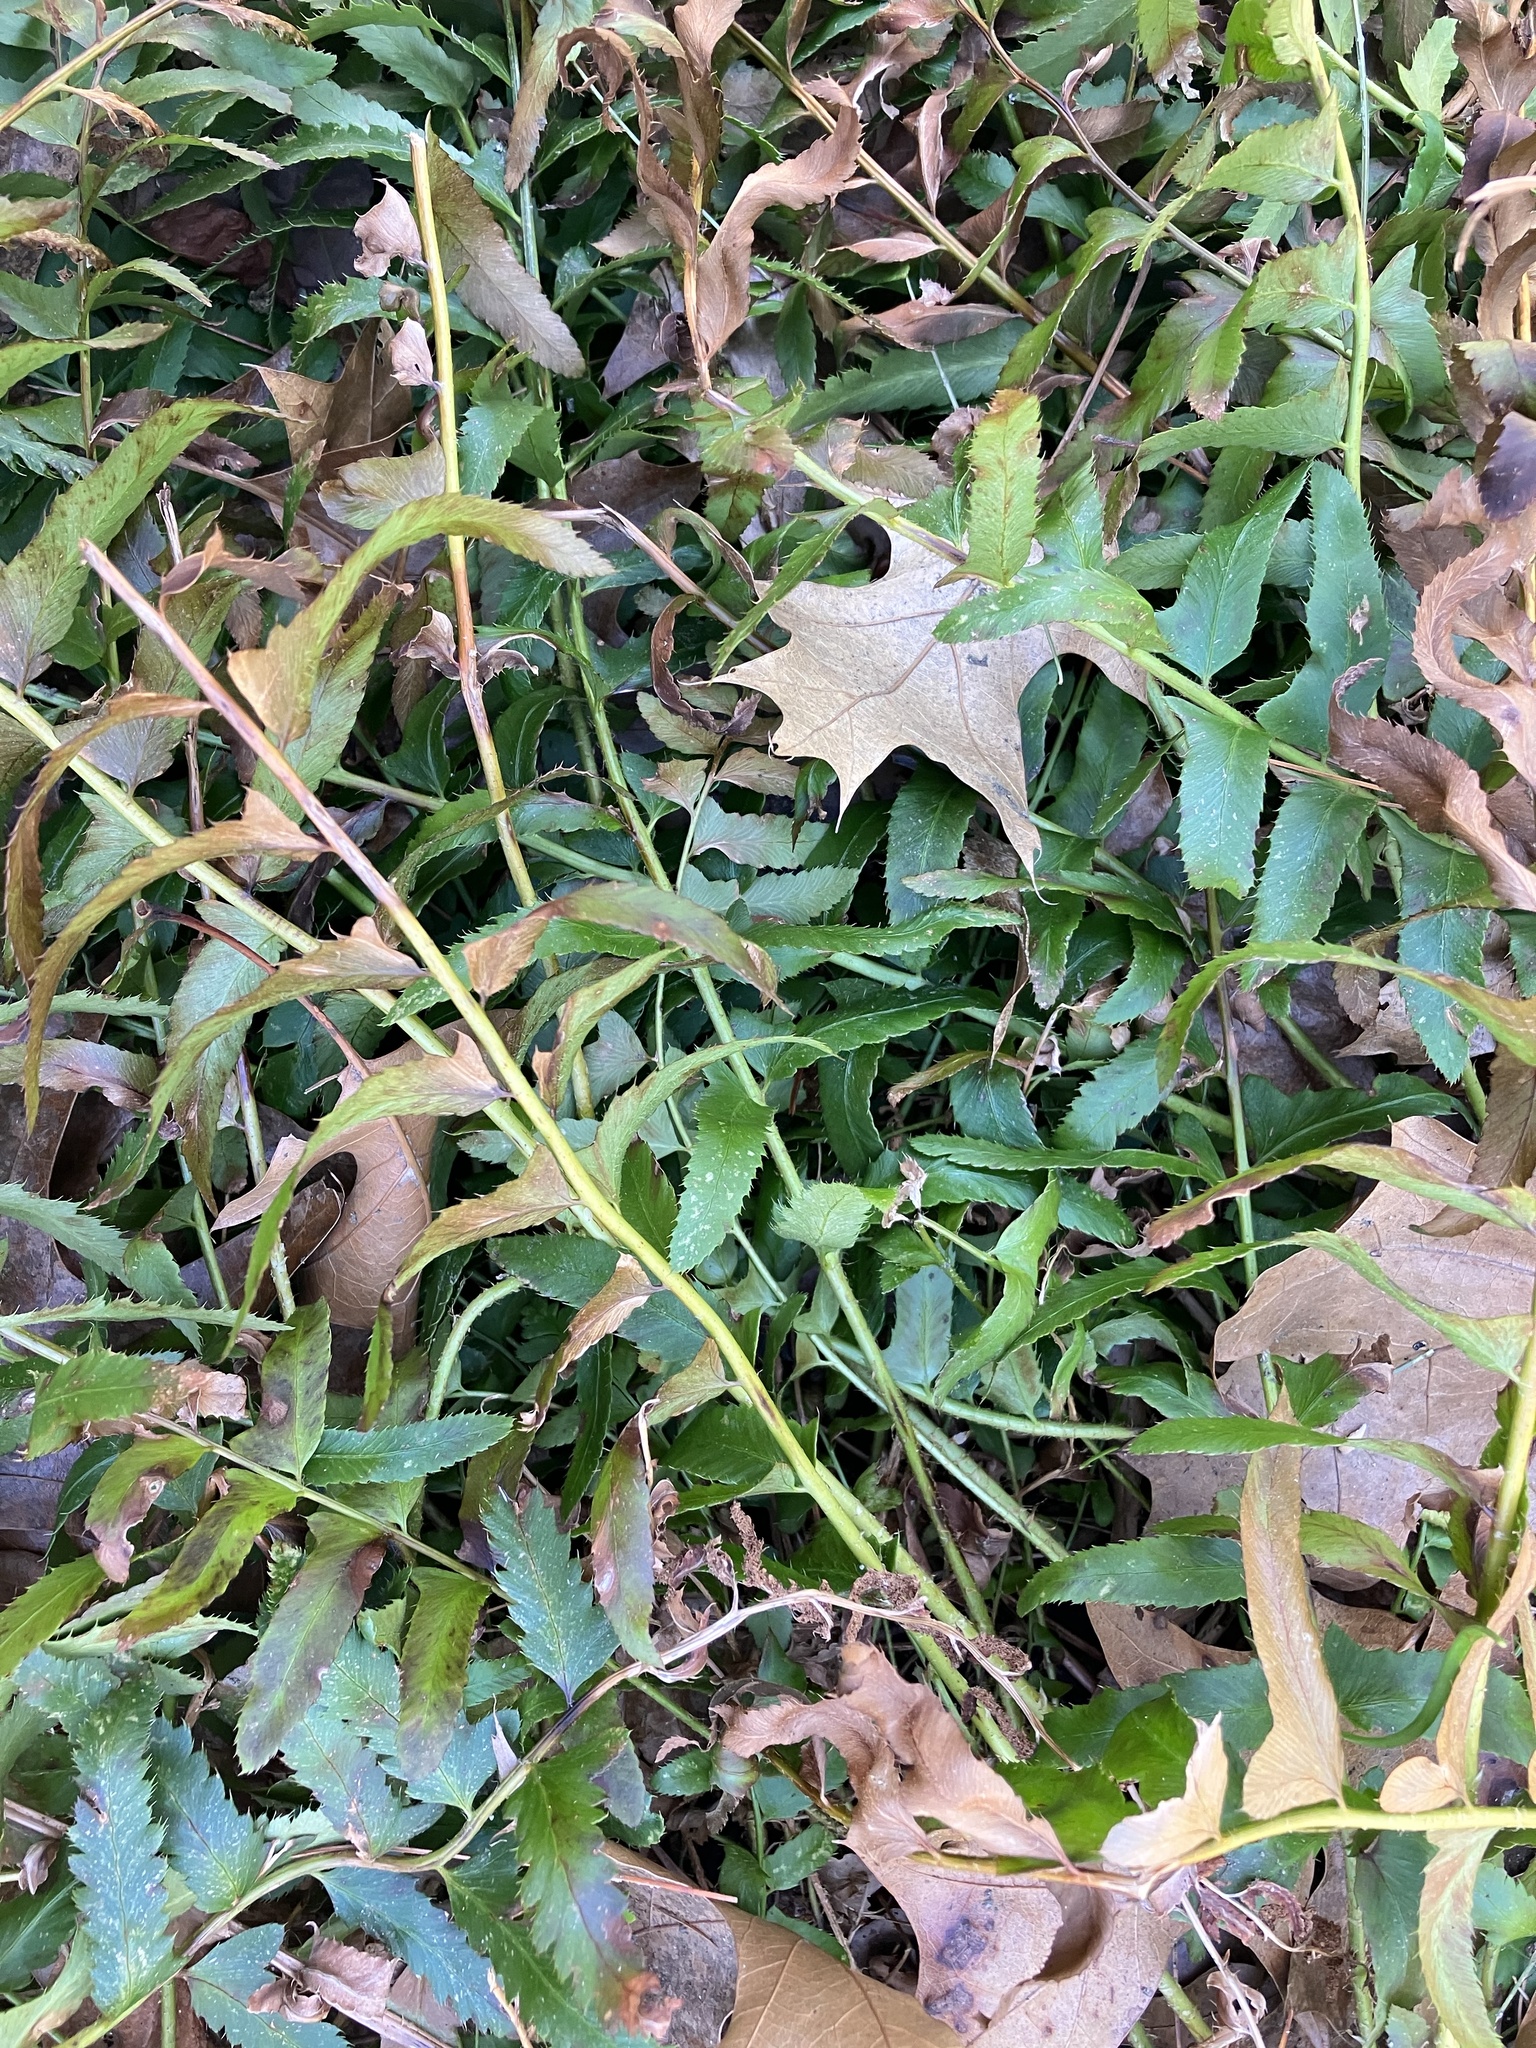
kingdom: Plantae
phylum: Tracheophyta
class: Polypodiopsida
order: Polypodiales
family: Dryopteridaceae
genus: Polystichum
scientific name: Polystichum acrostichoides
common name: Christmas fern
